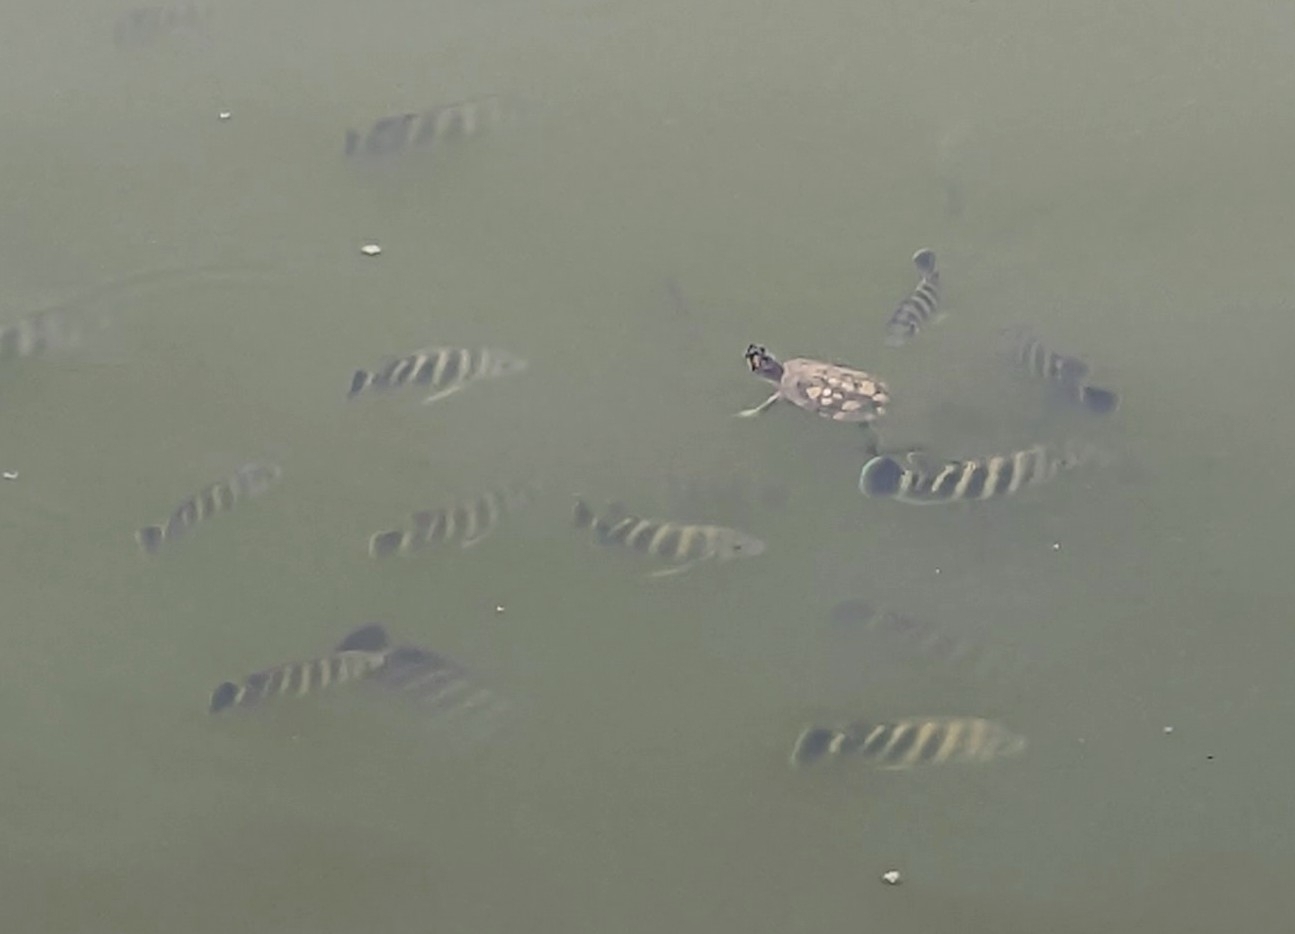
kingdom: Animalia
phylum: Chordata
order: Perciformes
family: Cichlidae
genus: Archocentrus
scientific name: Archocentrus Heterotilapia buettikoferi
